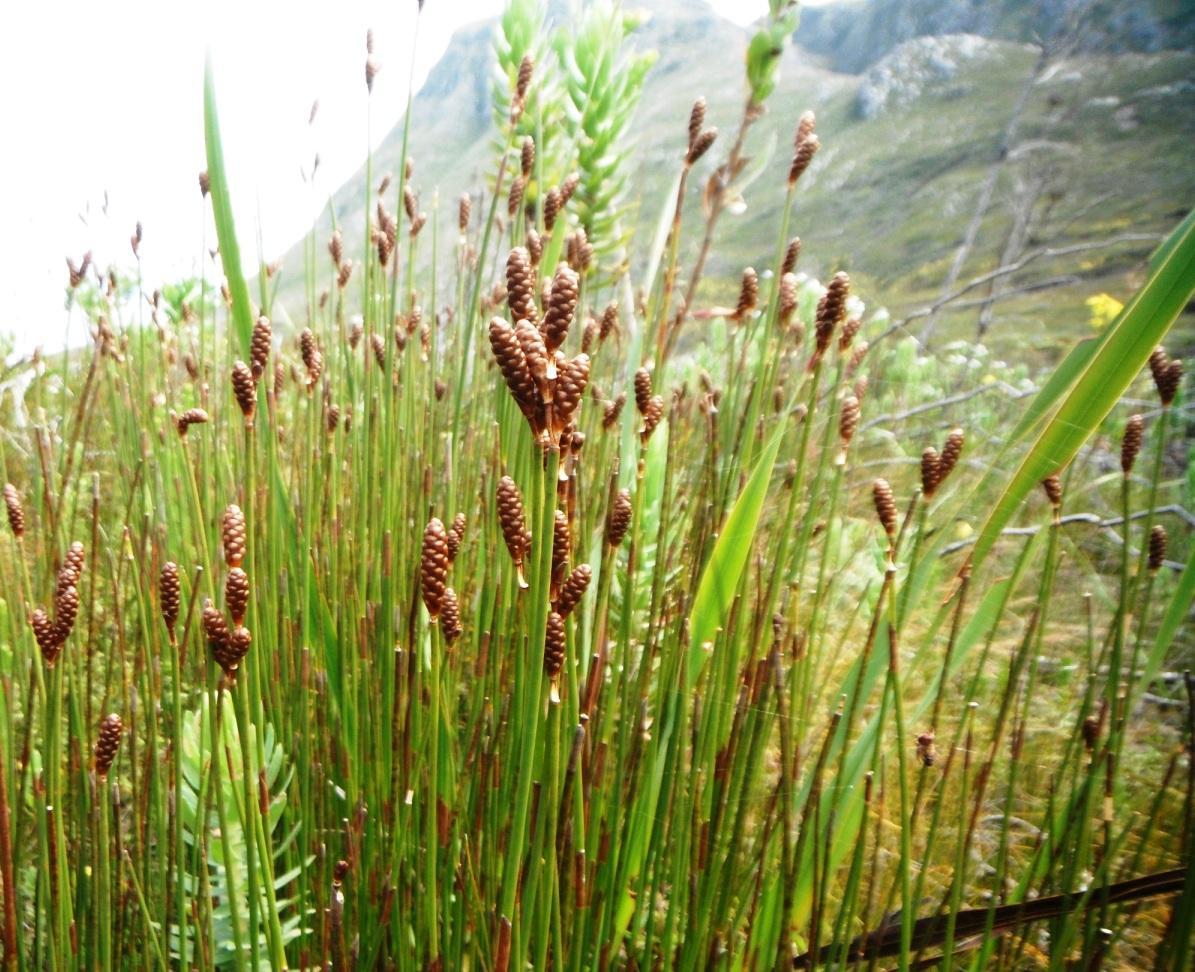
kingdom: Plantae
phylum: Tracheophyta
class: Liliopsida
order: Poales
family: Restionaceae
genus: Nevillea
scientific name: Nevillea obtusissimus
